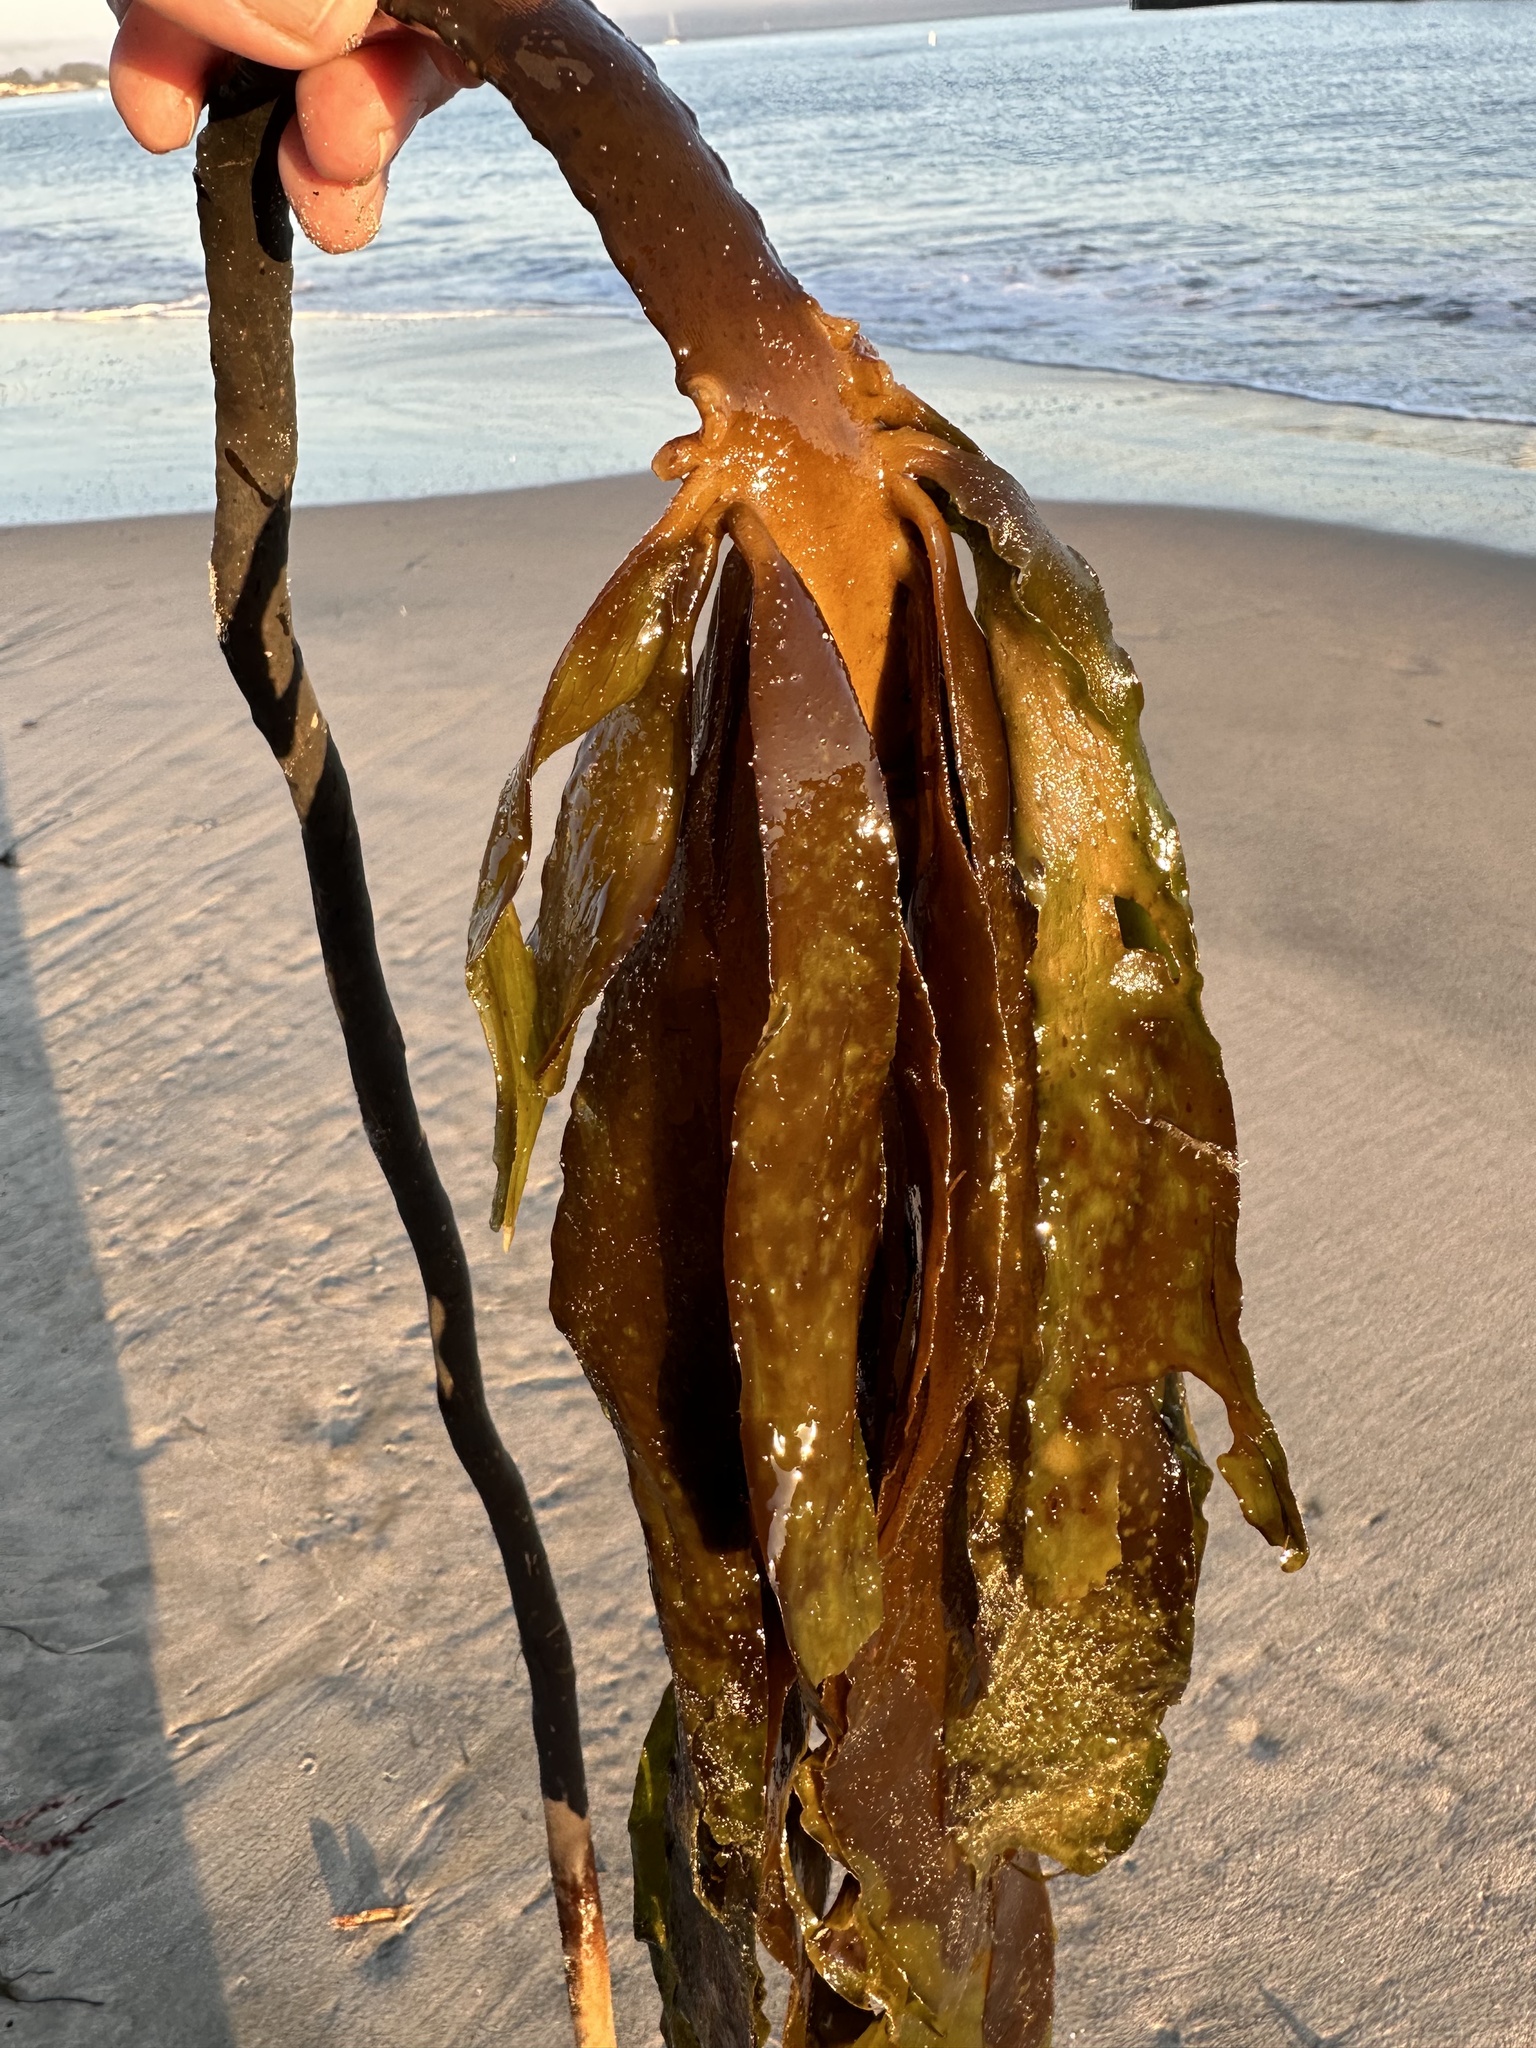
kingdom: Chromista
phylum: Ochrophyta
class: Phaeophyceae
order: Laminariales
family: Alariaceae
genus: Pterygophora
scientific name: Pterygophora californica
